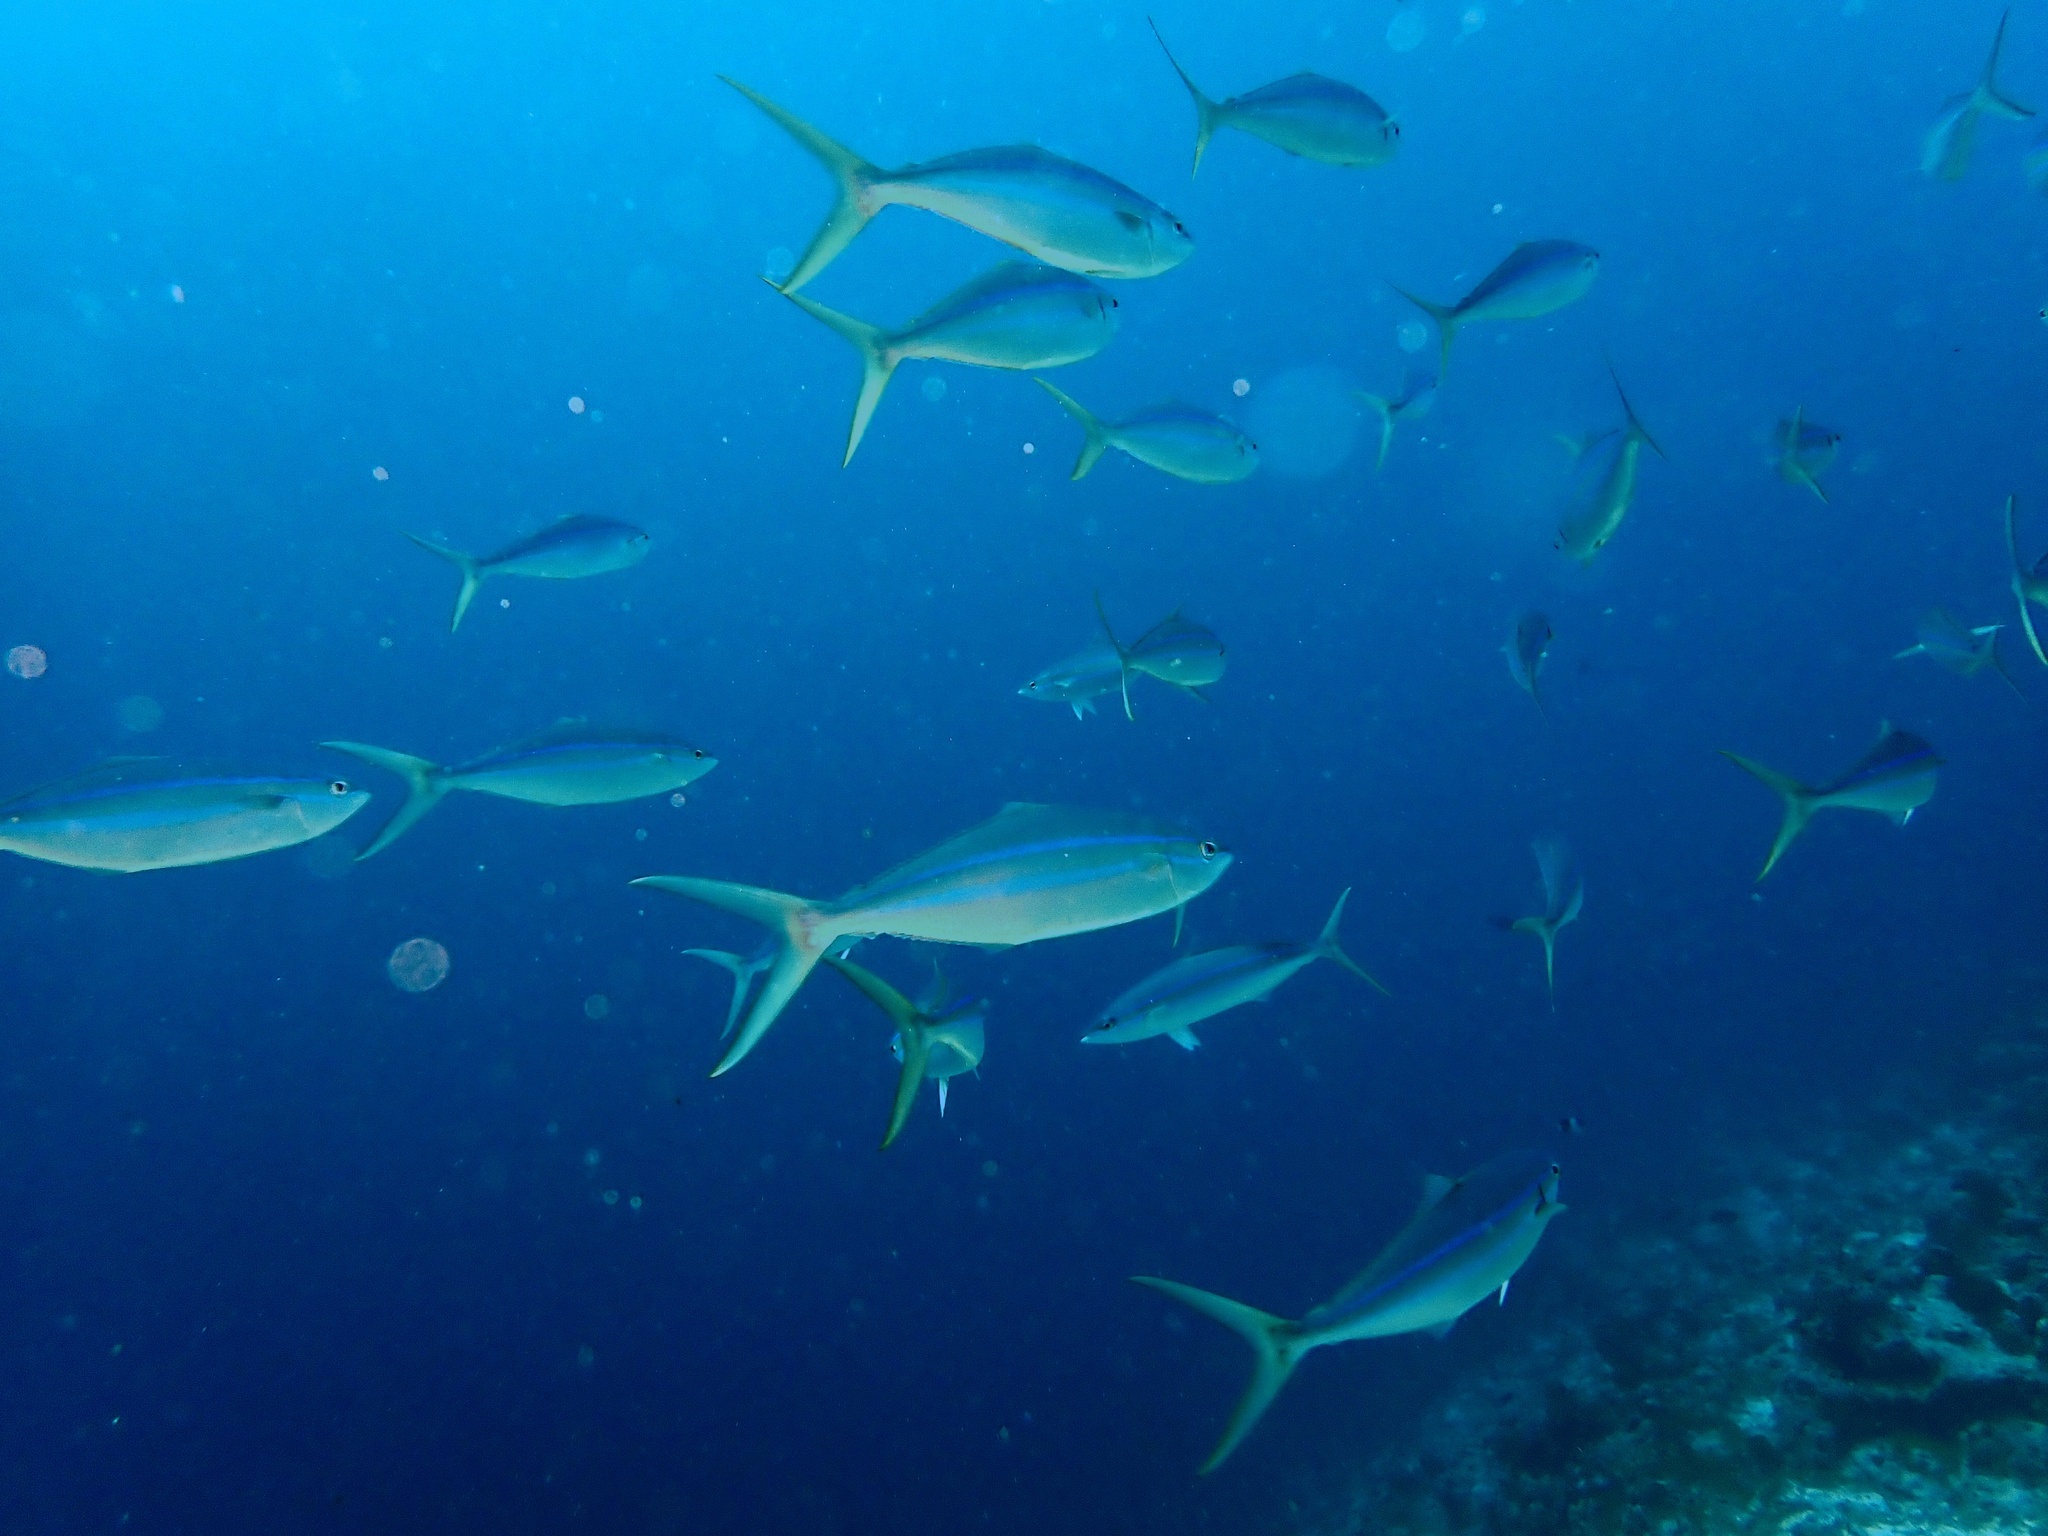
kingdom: Animalia
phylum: Chordata
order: Perciformes
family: Carangidae
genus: Elagatis
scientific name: Elagatis bipinnulata
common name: Rainbow runner
